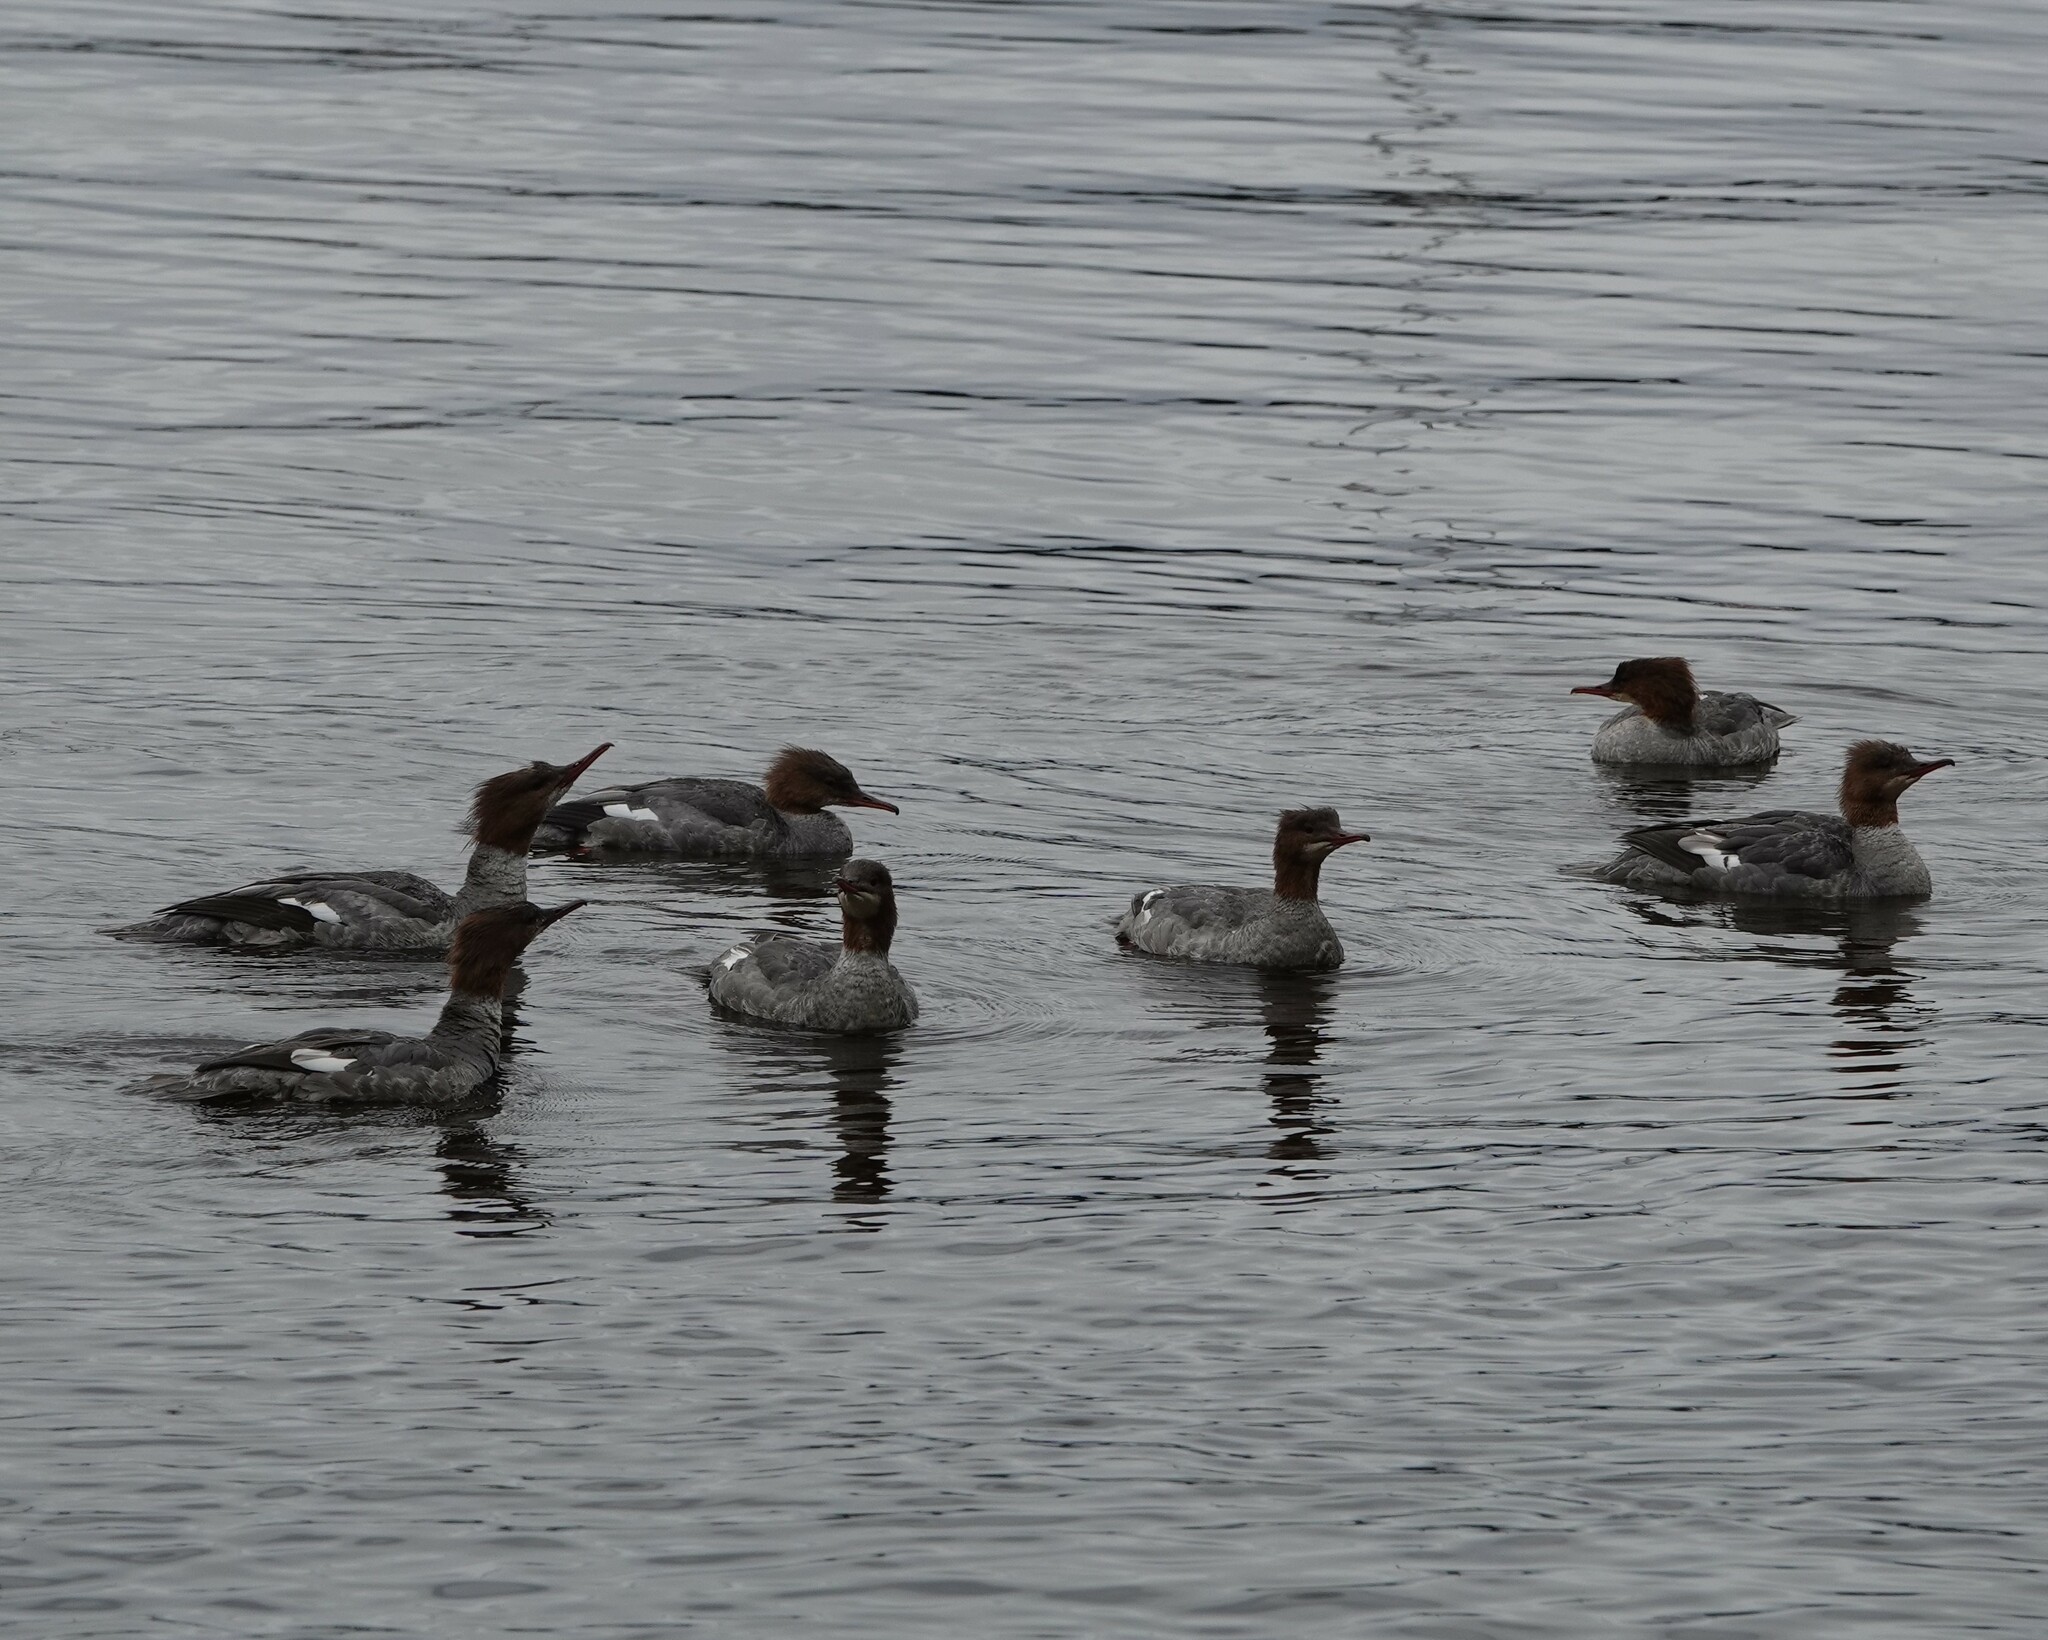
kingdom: Animalia
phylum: Chordata
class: Aves
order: Anseriformes
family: Anatidae
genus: Mergus
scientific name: Mergus merganser
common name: Common merganser
